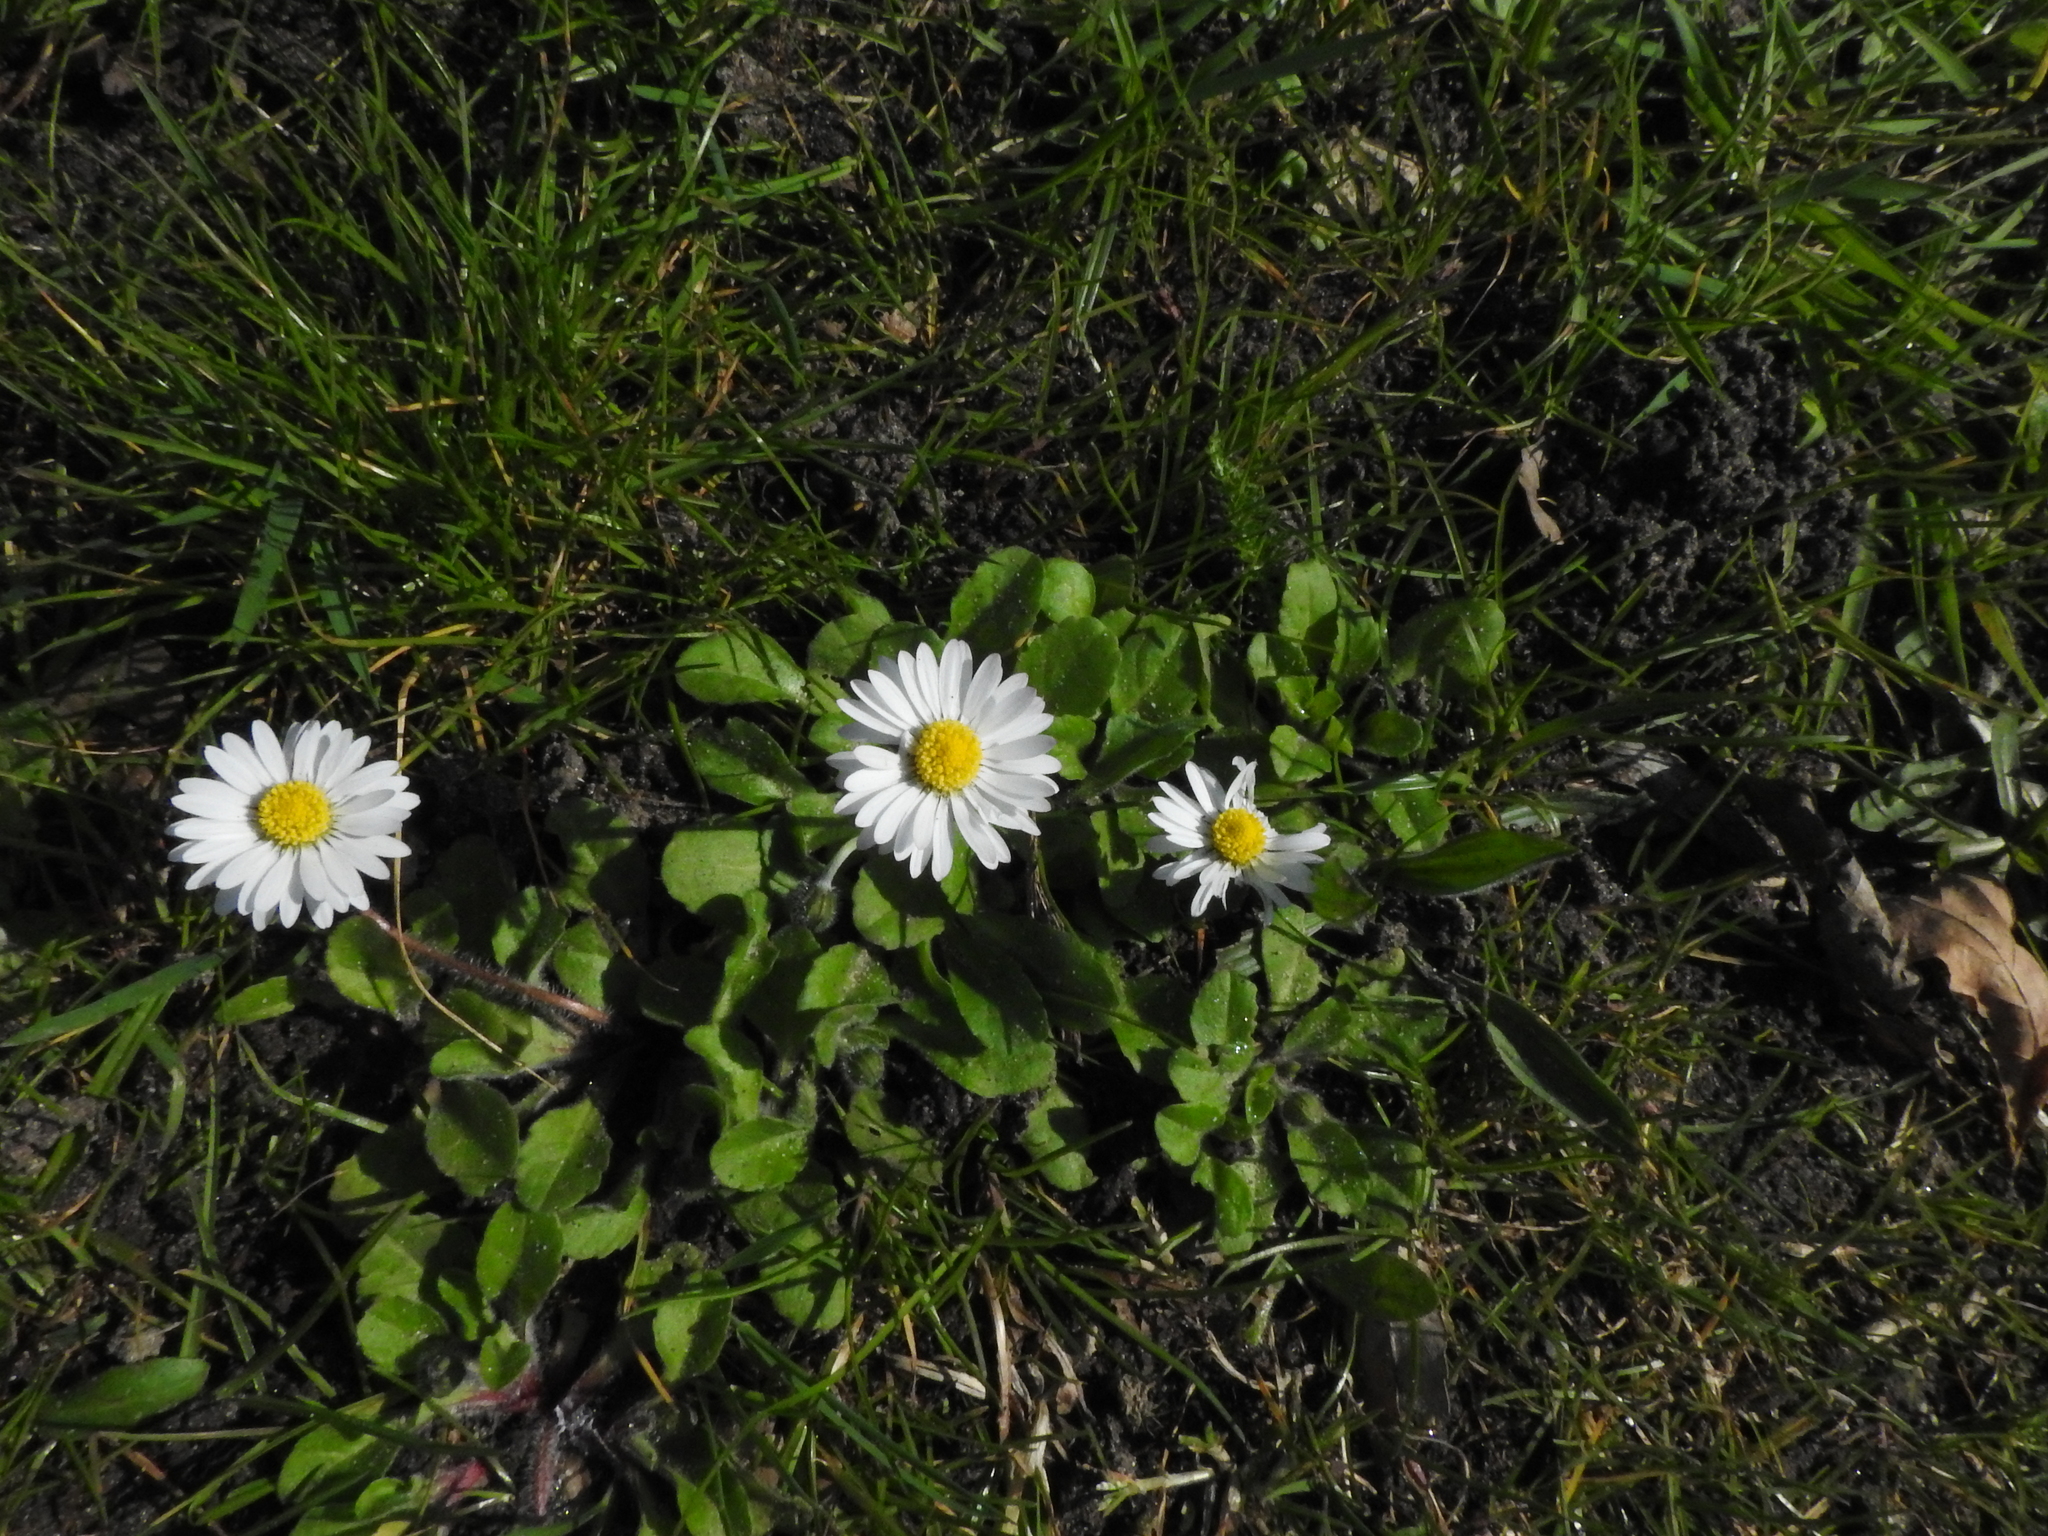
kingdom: Plantae
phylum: Tracheophyta
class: Magnoliopsida
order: Asterales
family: Asteraceae
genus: Bellis
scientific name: Bellis perennis
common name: Lawndaisy
